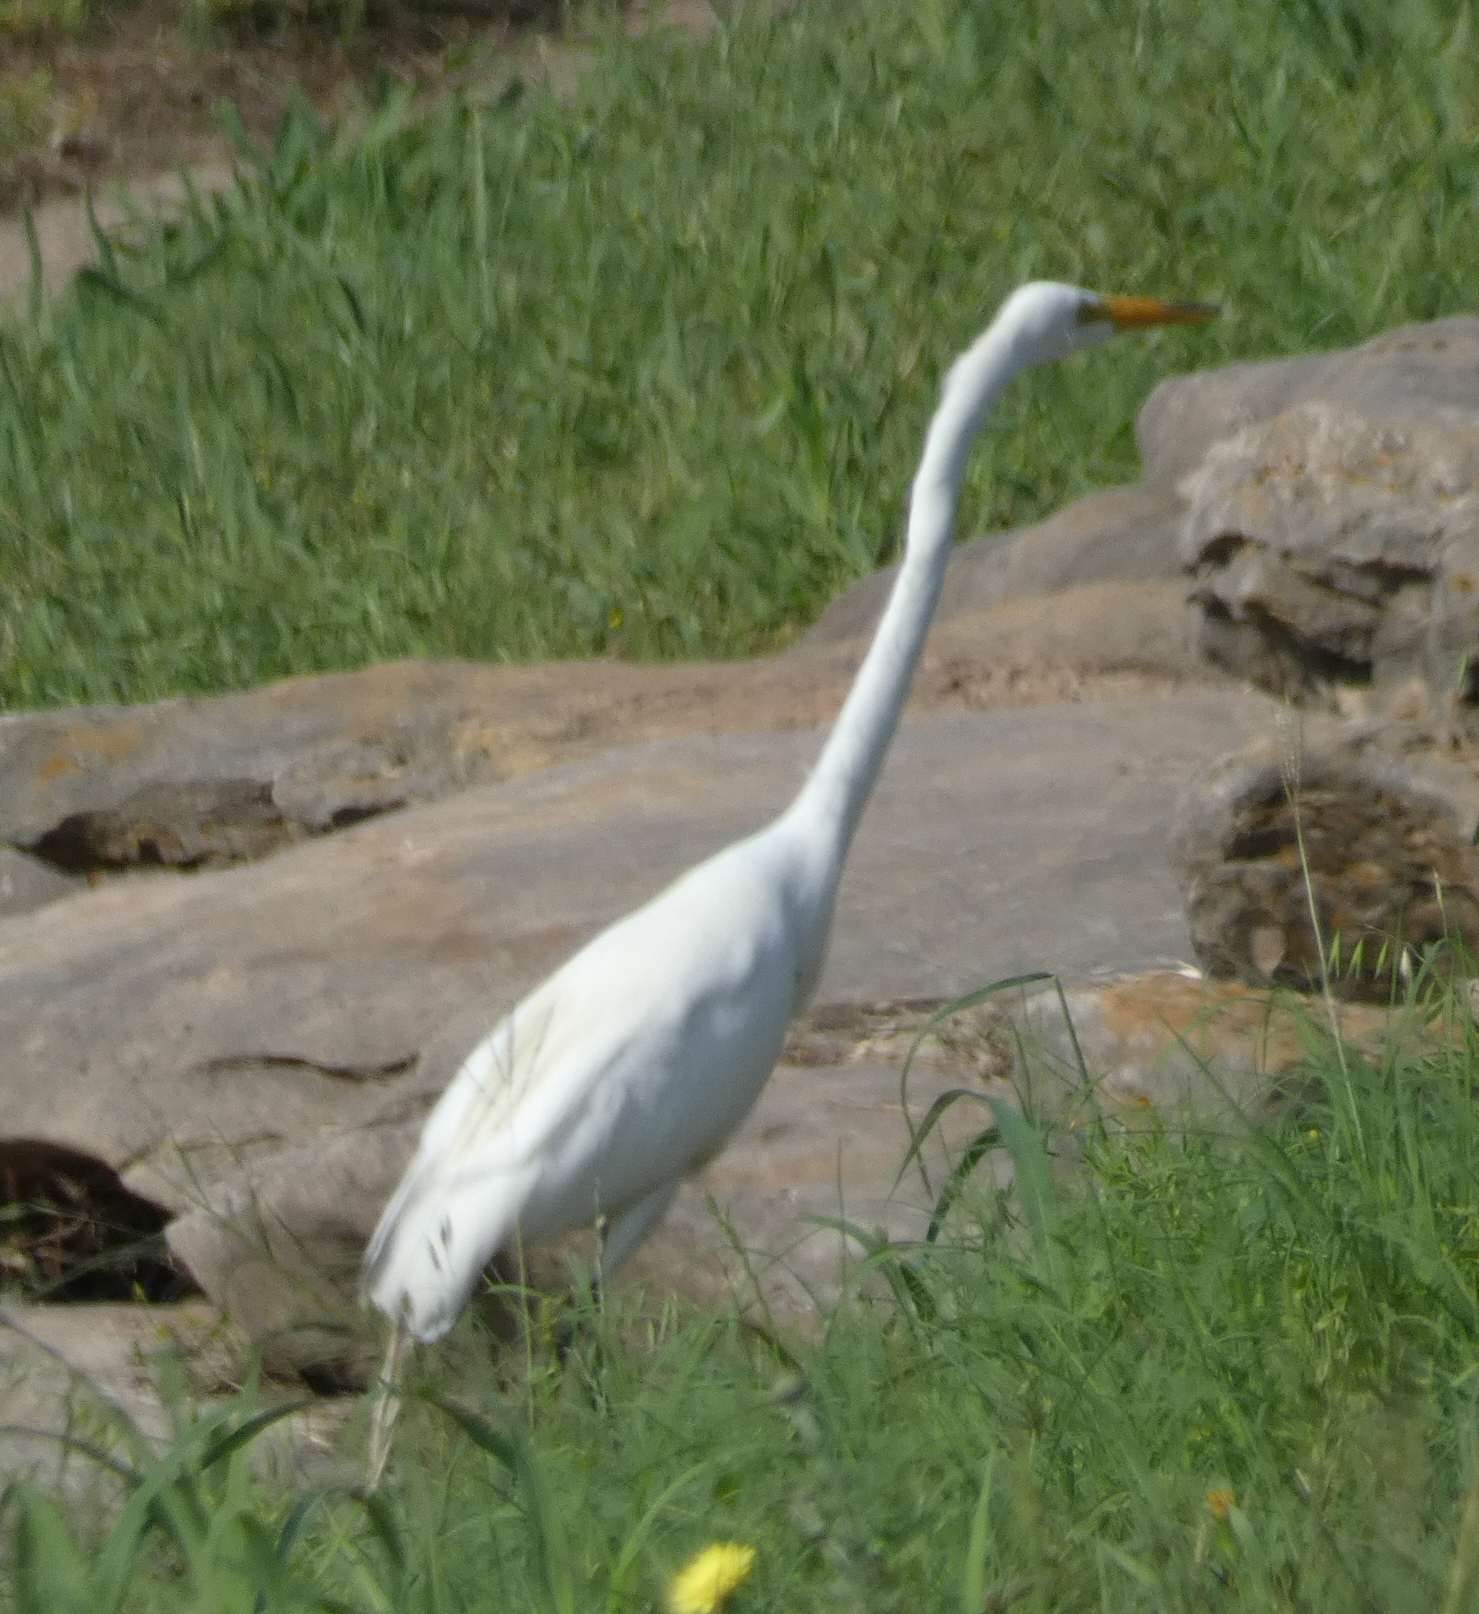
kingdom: Animalia
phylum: Chordata
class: Aves
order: Pelecaniformes
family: Ardeidae
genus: Ardea
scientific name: Ardea alba
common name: Great egret
